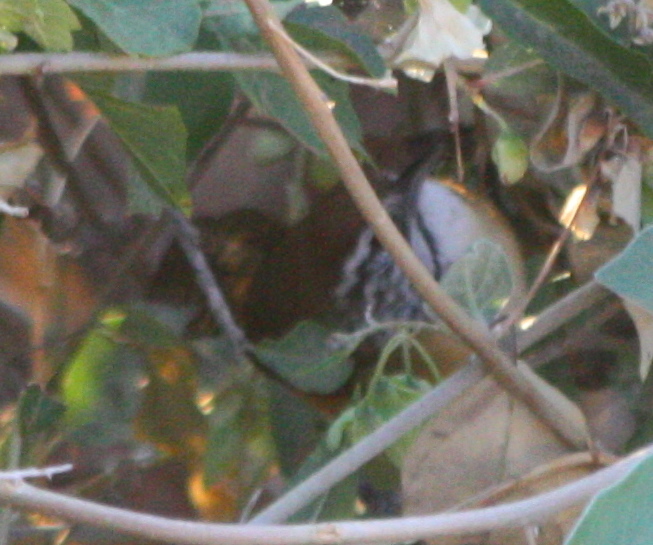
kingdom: Animalia
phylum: Chordata
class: Aves
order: Passeriformes
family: Troglodytidae
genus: Pheugopedius
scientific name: Pheugopedius felix
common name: Happy wren
